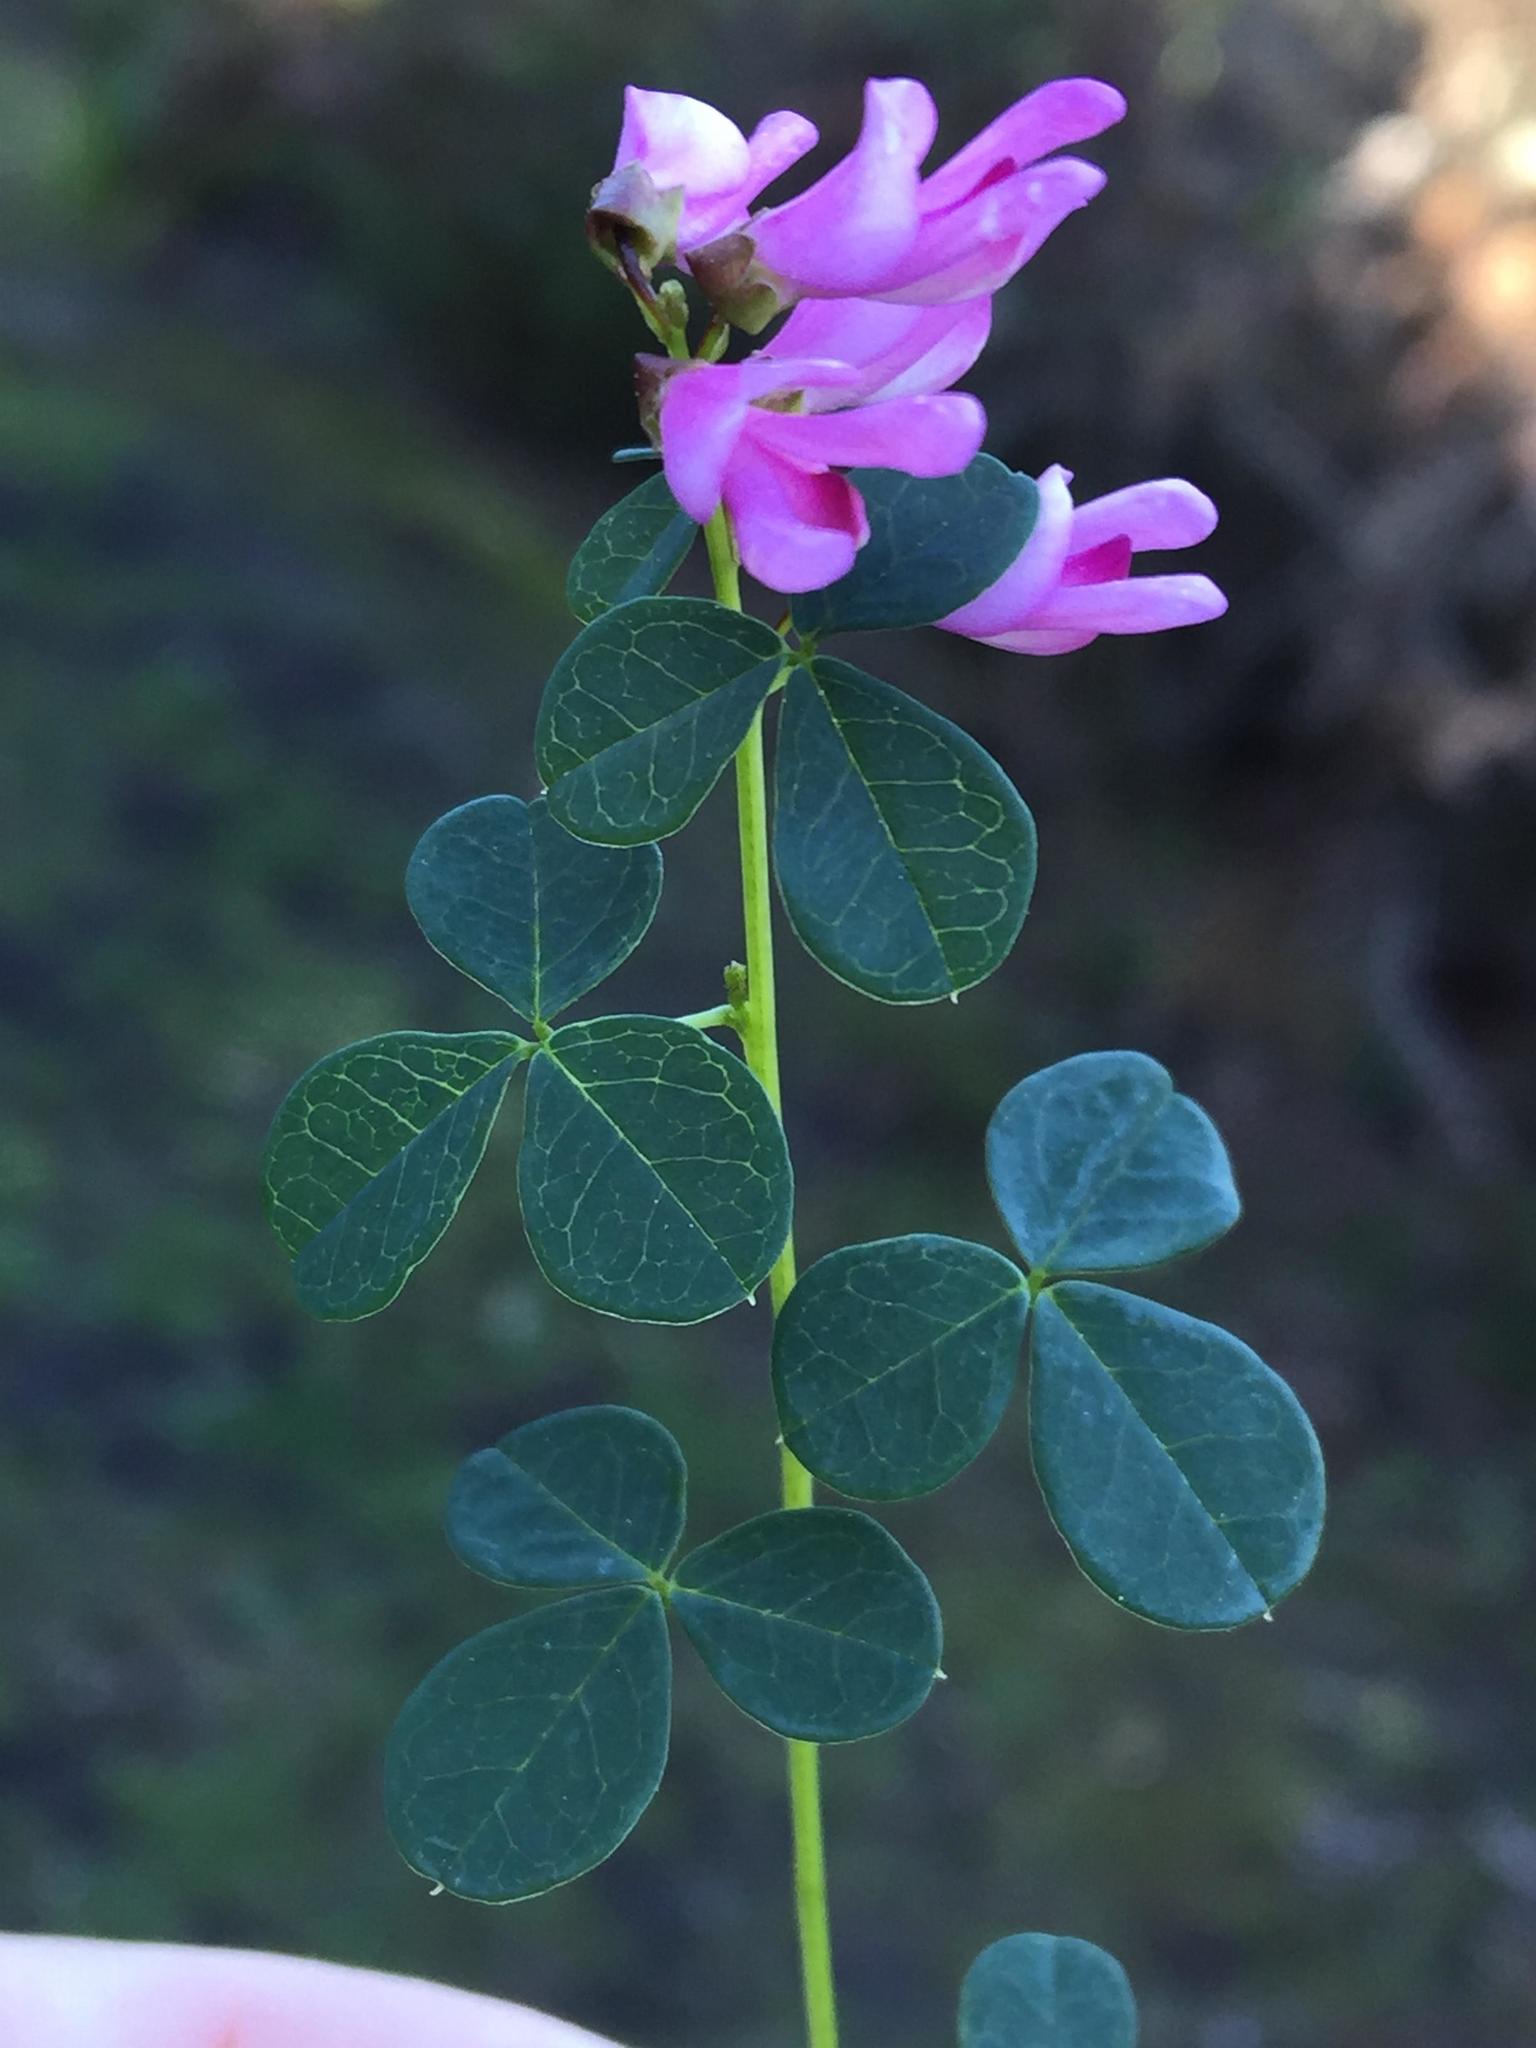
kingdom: Plantae
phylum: Tracheophyta
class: Magnoliopsida
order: Fabales
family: Fabaceae
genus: Hypocalyptus
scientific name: Hypocalyptus oxalidifolius
